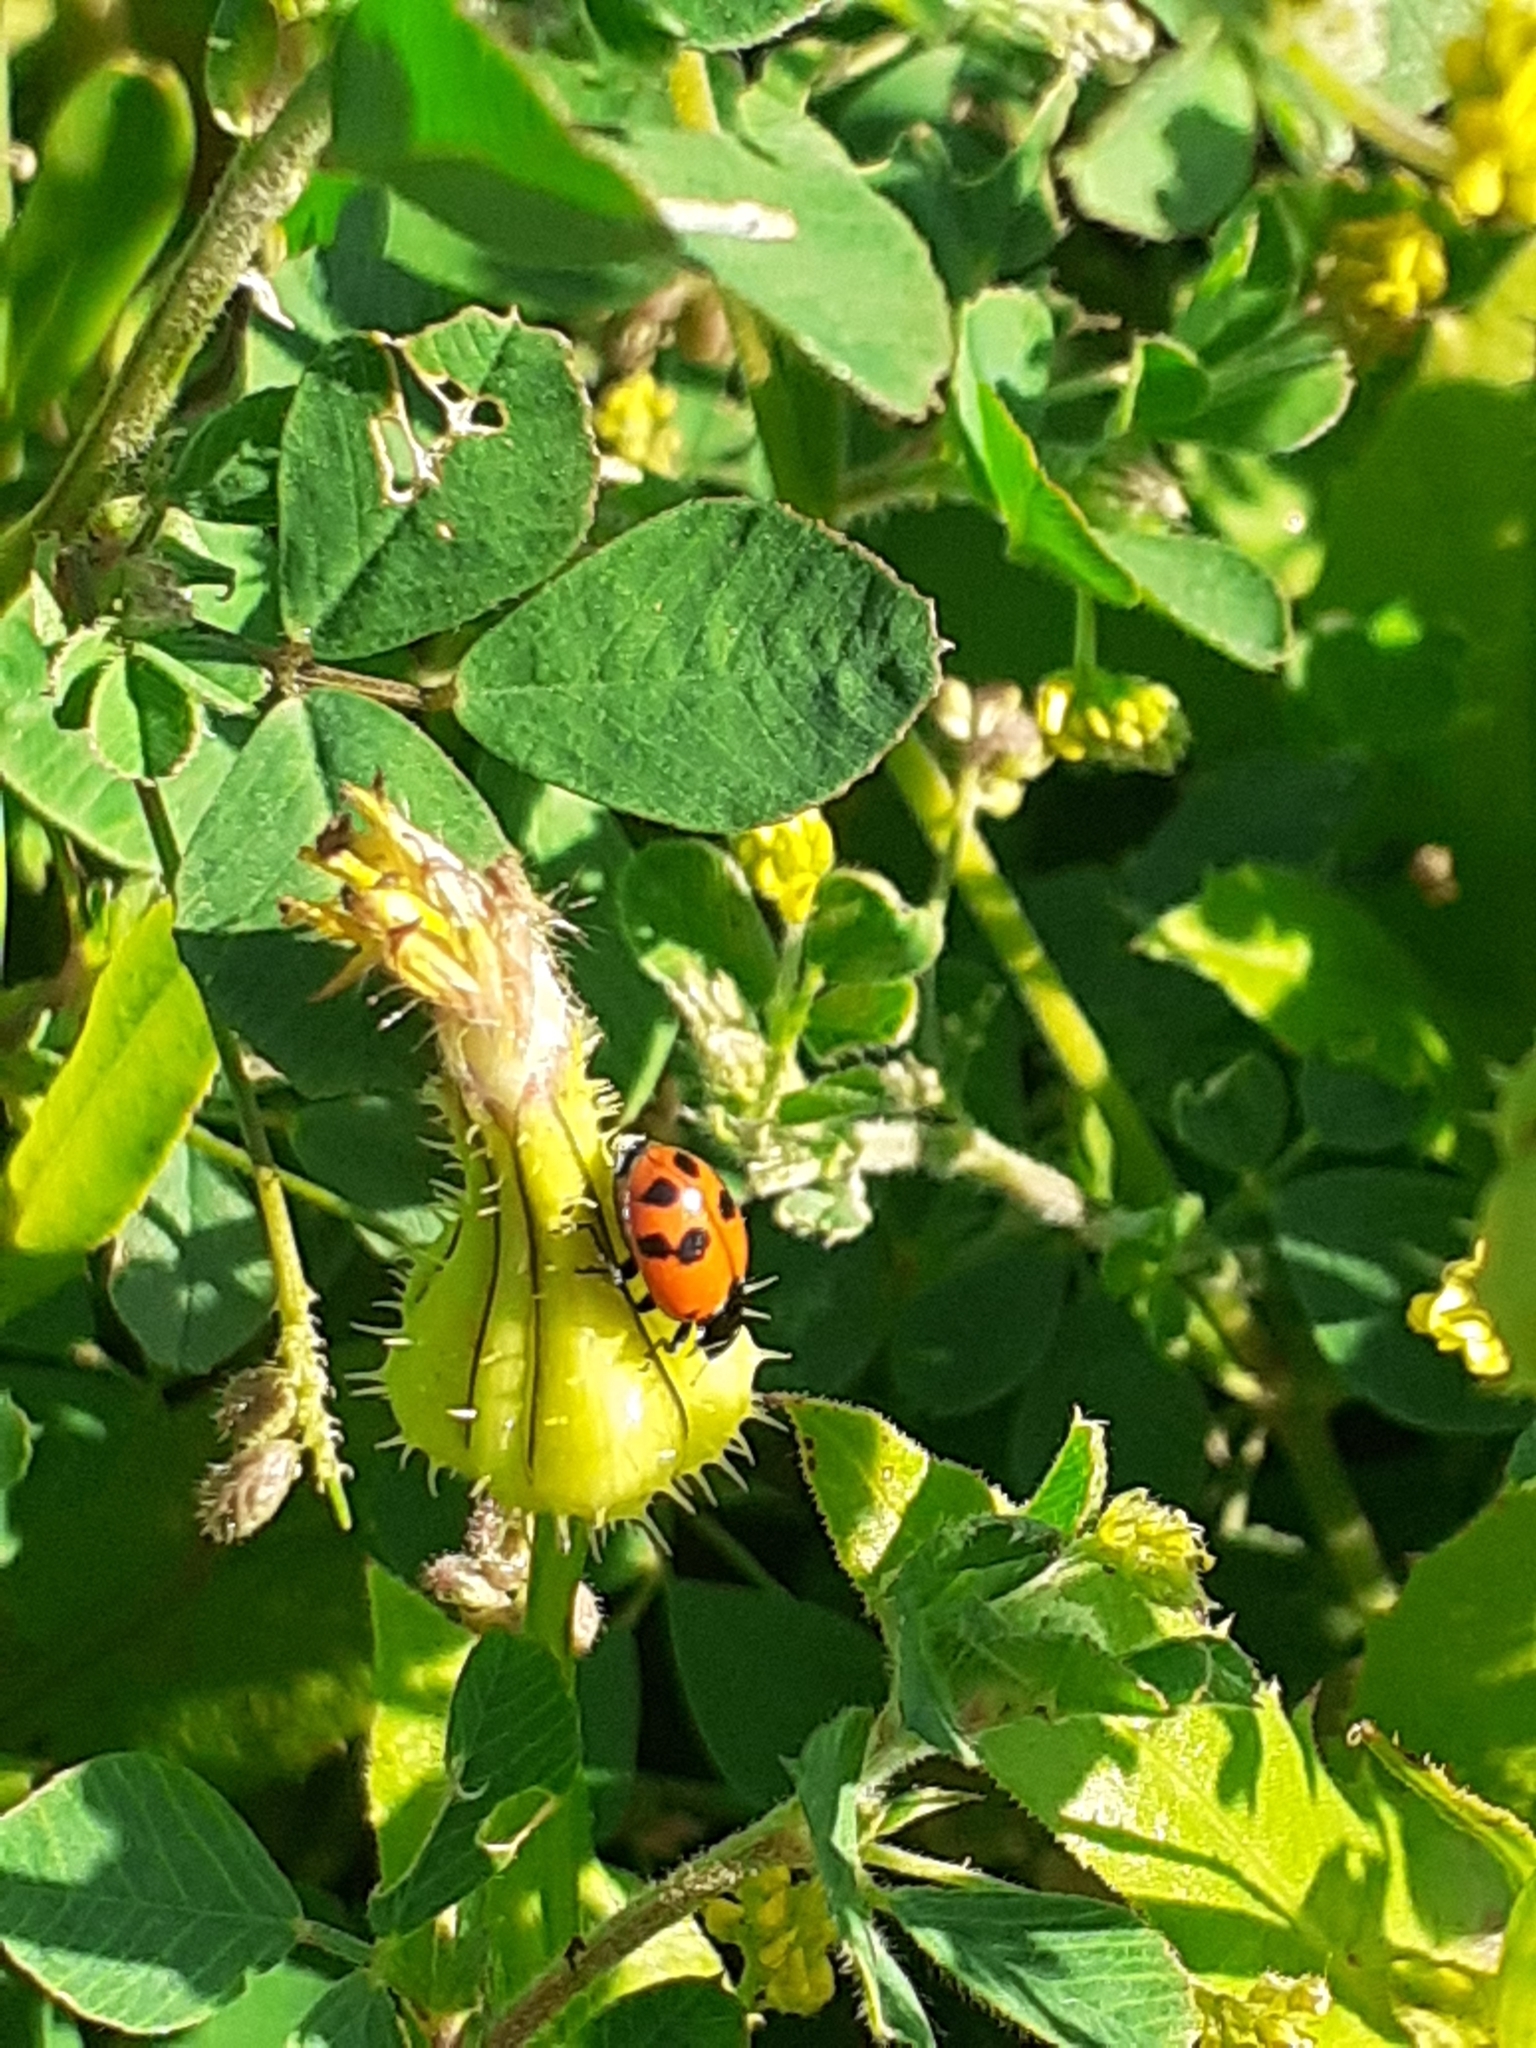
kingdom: Animalia
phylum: Arthropoda
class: Insecta
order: Coleoptera
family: Coccinellidae
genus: Hippodamia
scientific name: Hippodamia variegata
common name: Ladybird beetle
